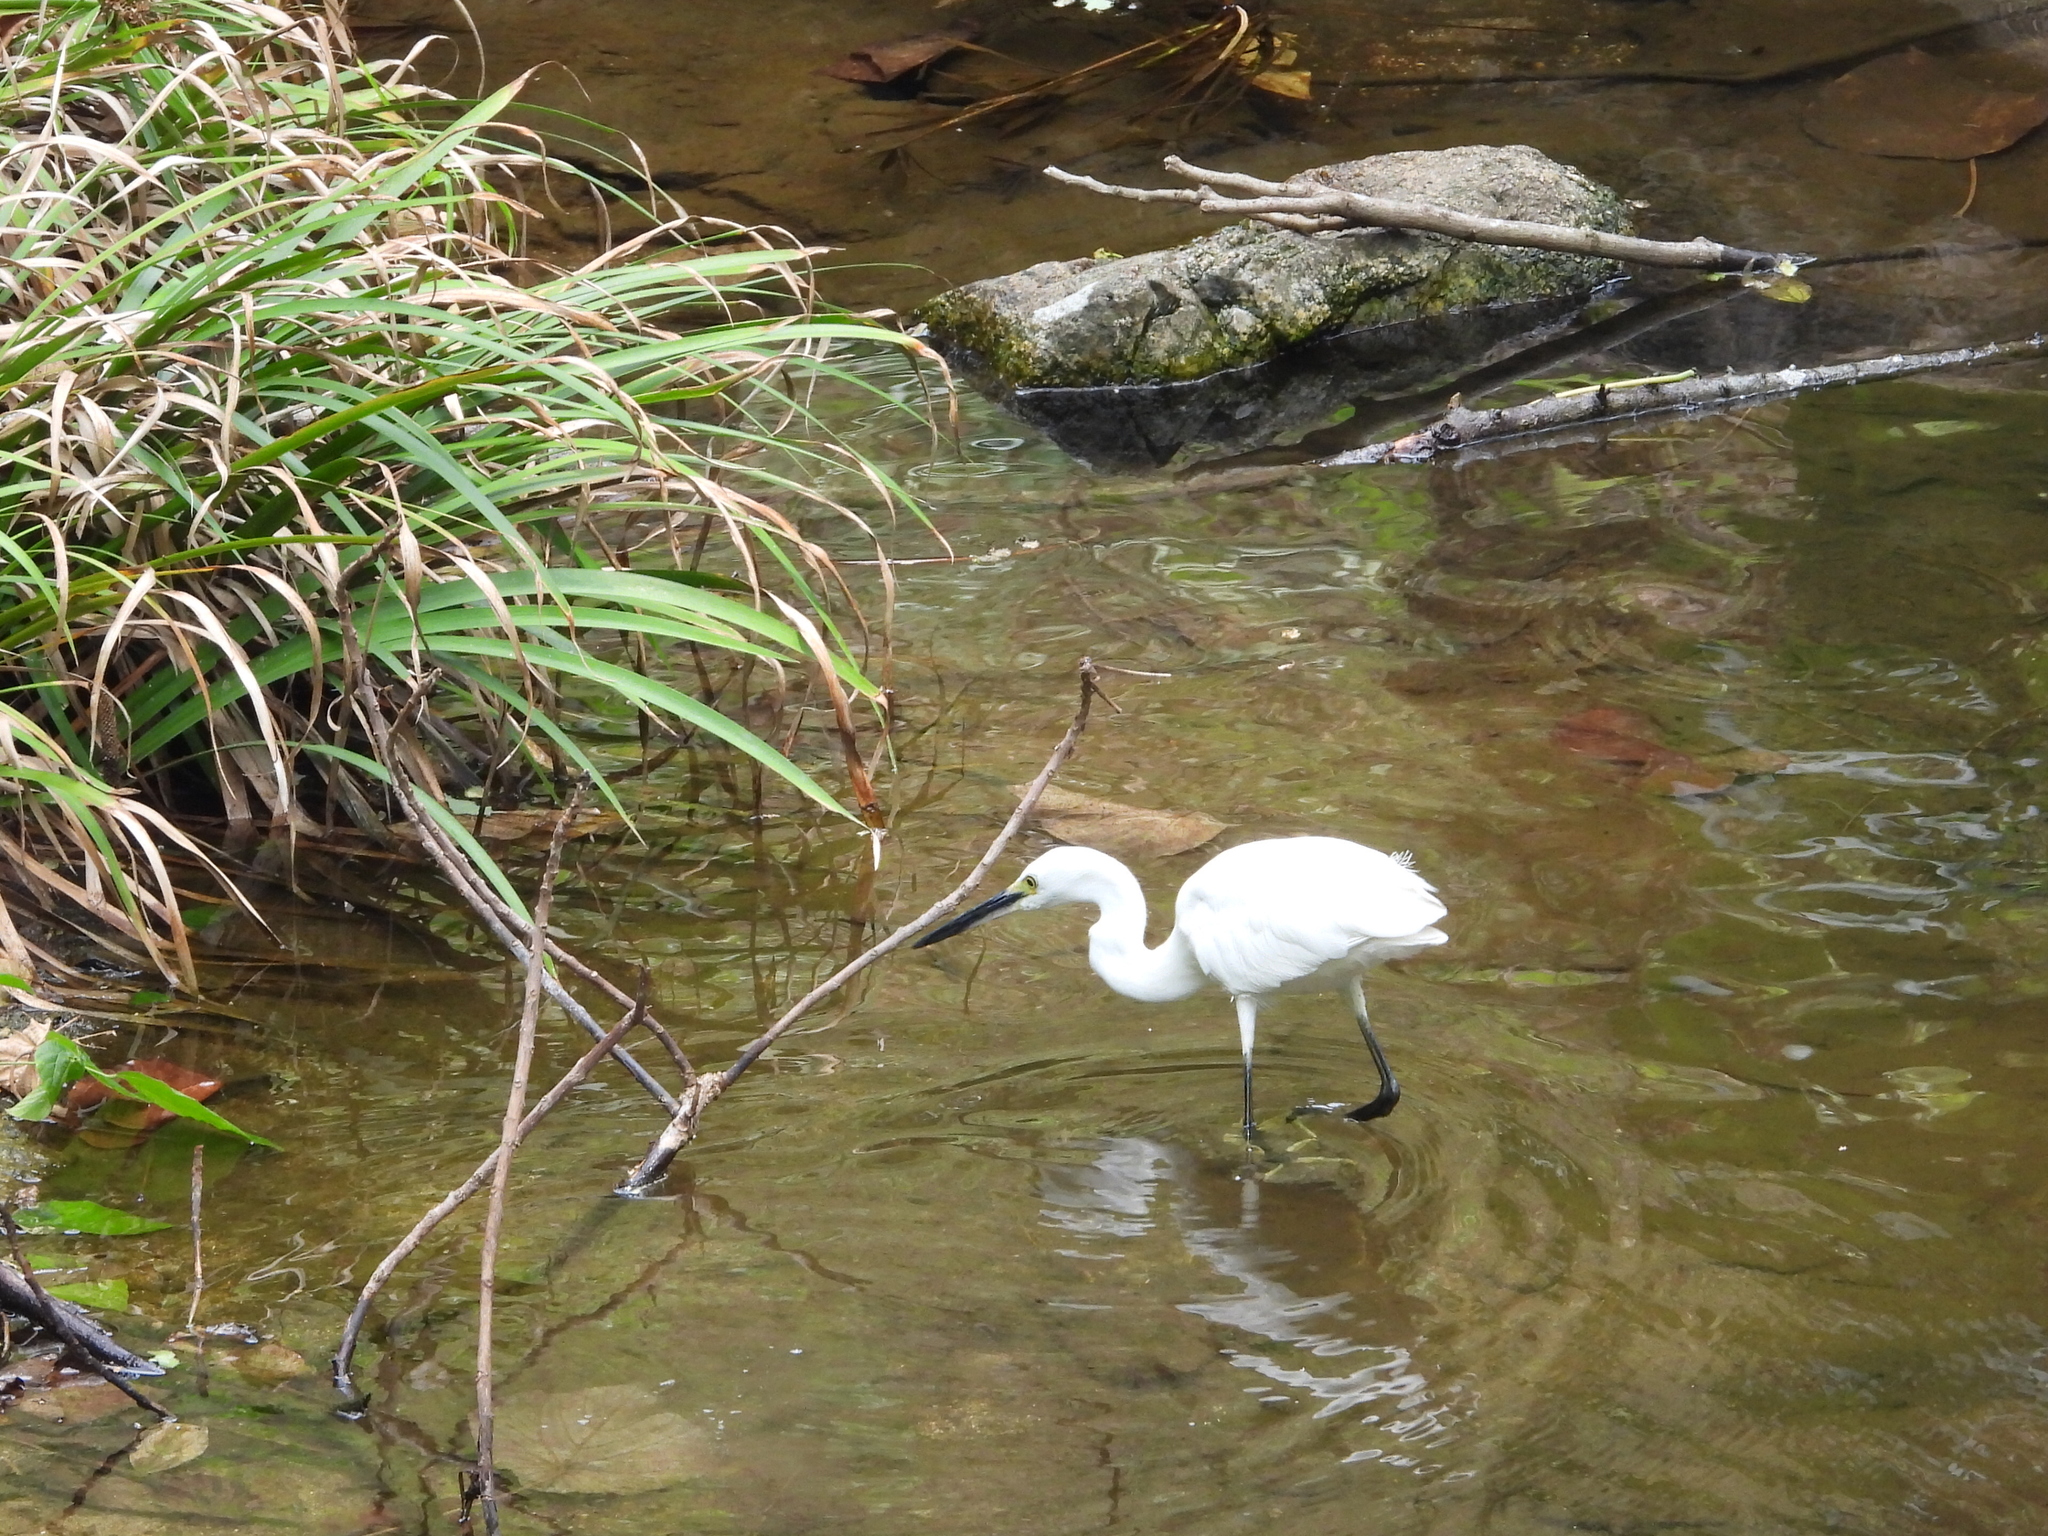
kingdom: Animalia
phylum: Chordata
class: Aves
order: Pelecaniformes
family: Ardeidae
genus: Egretta
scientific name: Egretta garzetta
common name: Little egret
